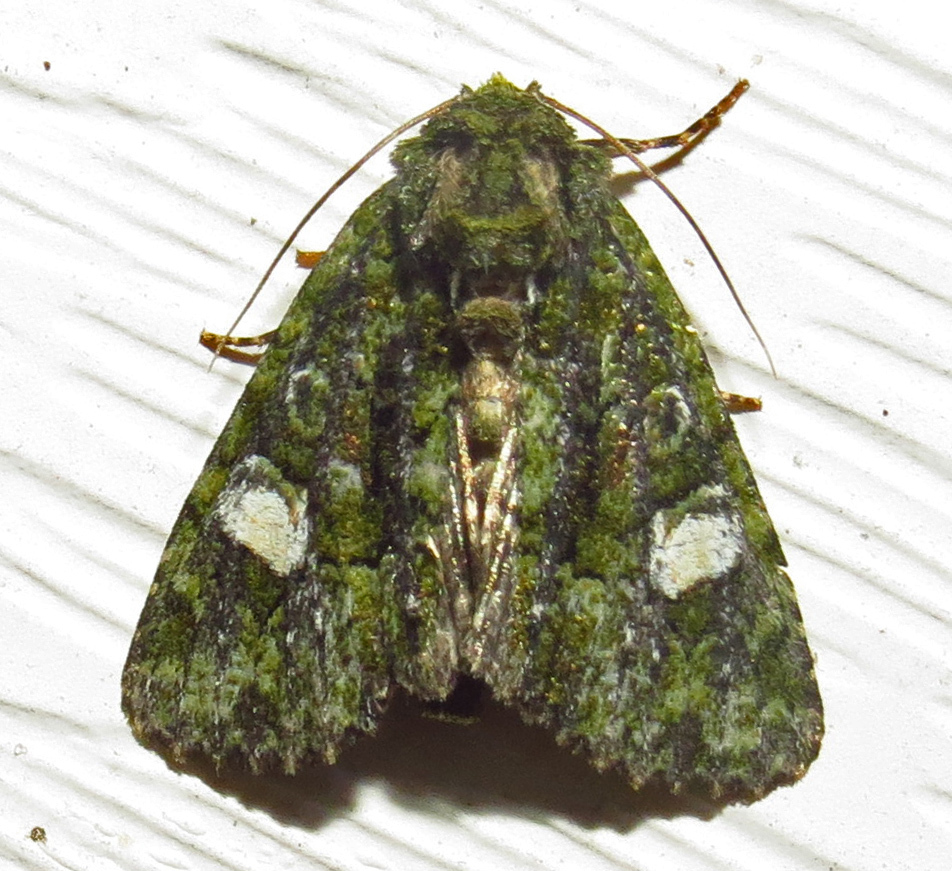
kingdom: Animalia
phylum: Arthropoda
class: Insecta
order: Lepidoptera
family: Noctuidae
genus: Phosphila
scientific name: Phosphila miselioides
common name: Spotted phosphila moth
